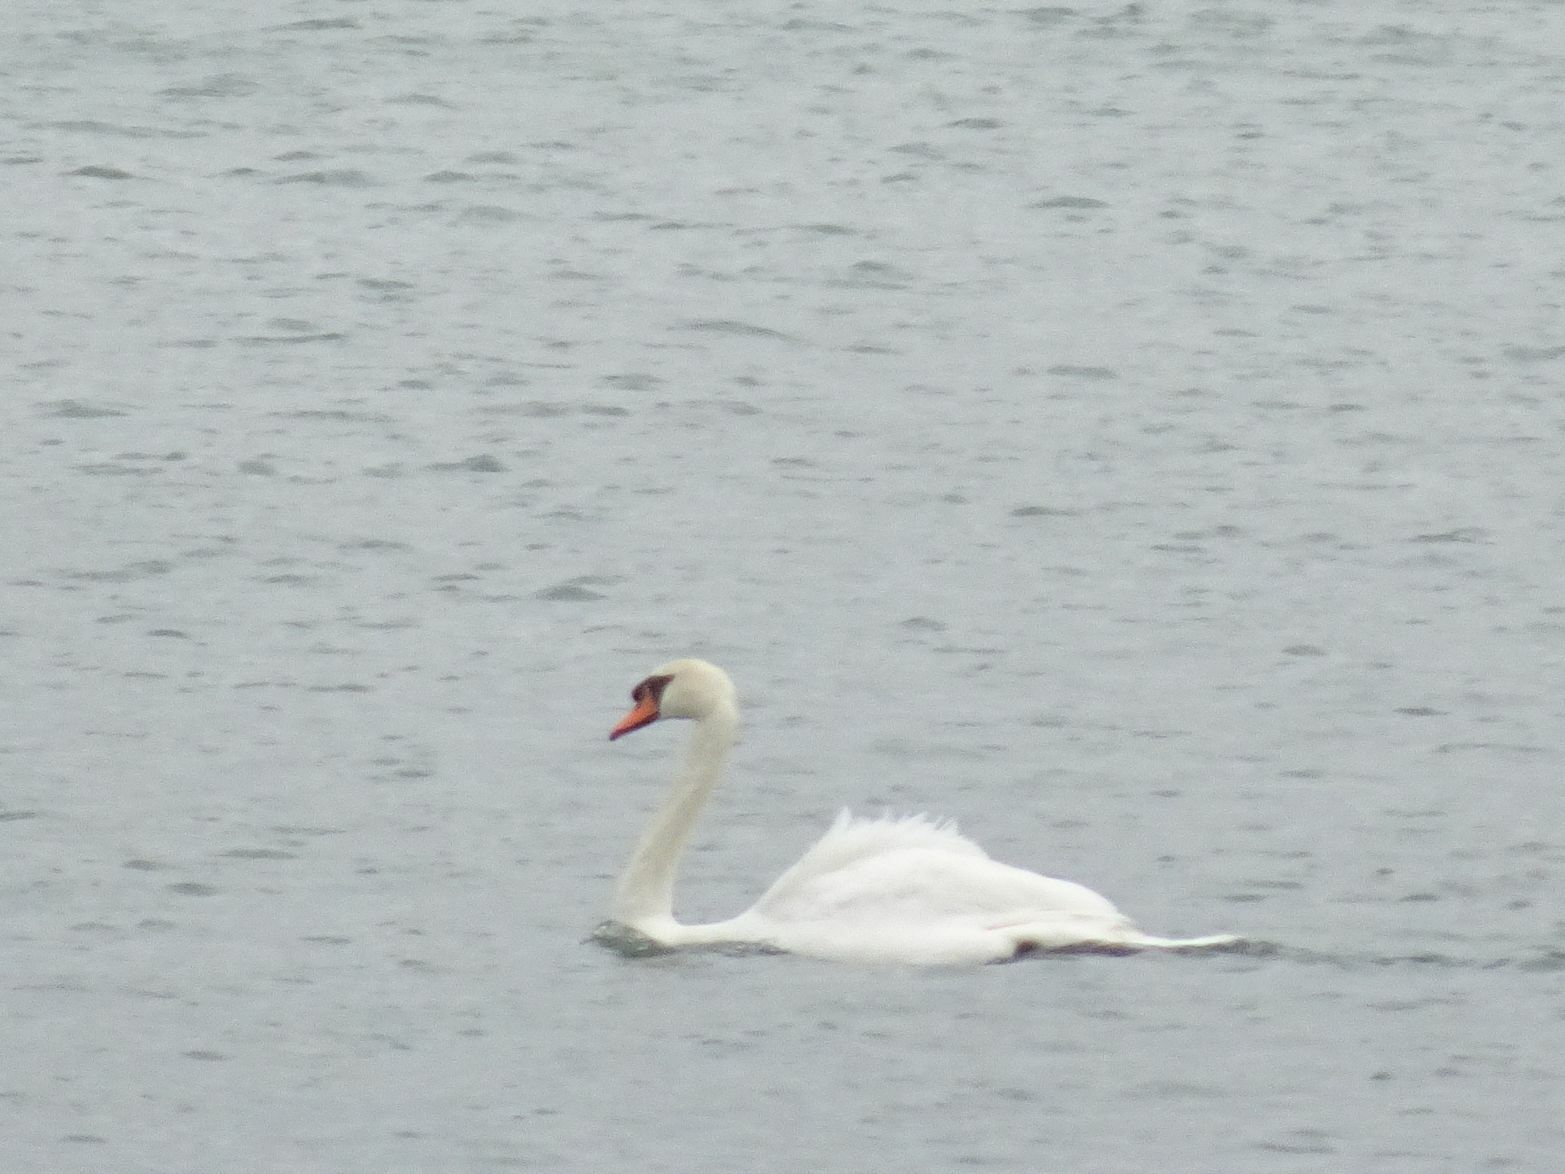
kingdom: Animalia
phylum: Chordata
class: Aves
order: Anseriformes
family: Anatidae
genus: Cygnus
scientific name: Cygnus olor
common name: Mute swan
